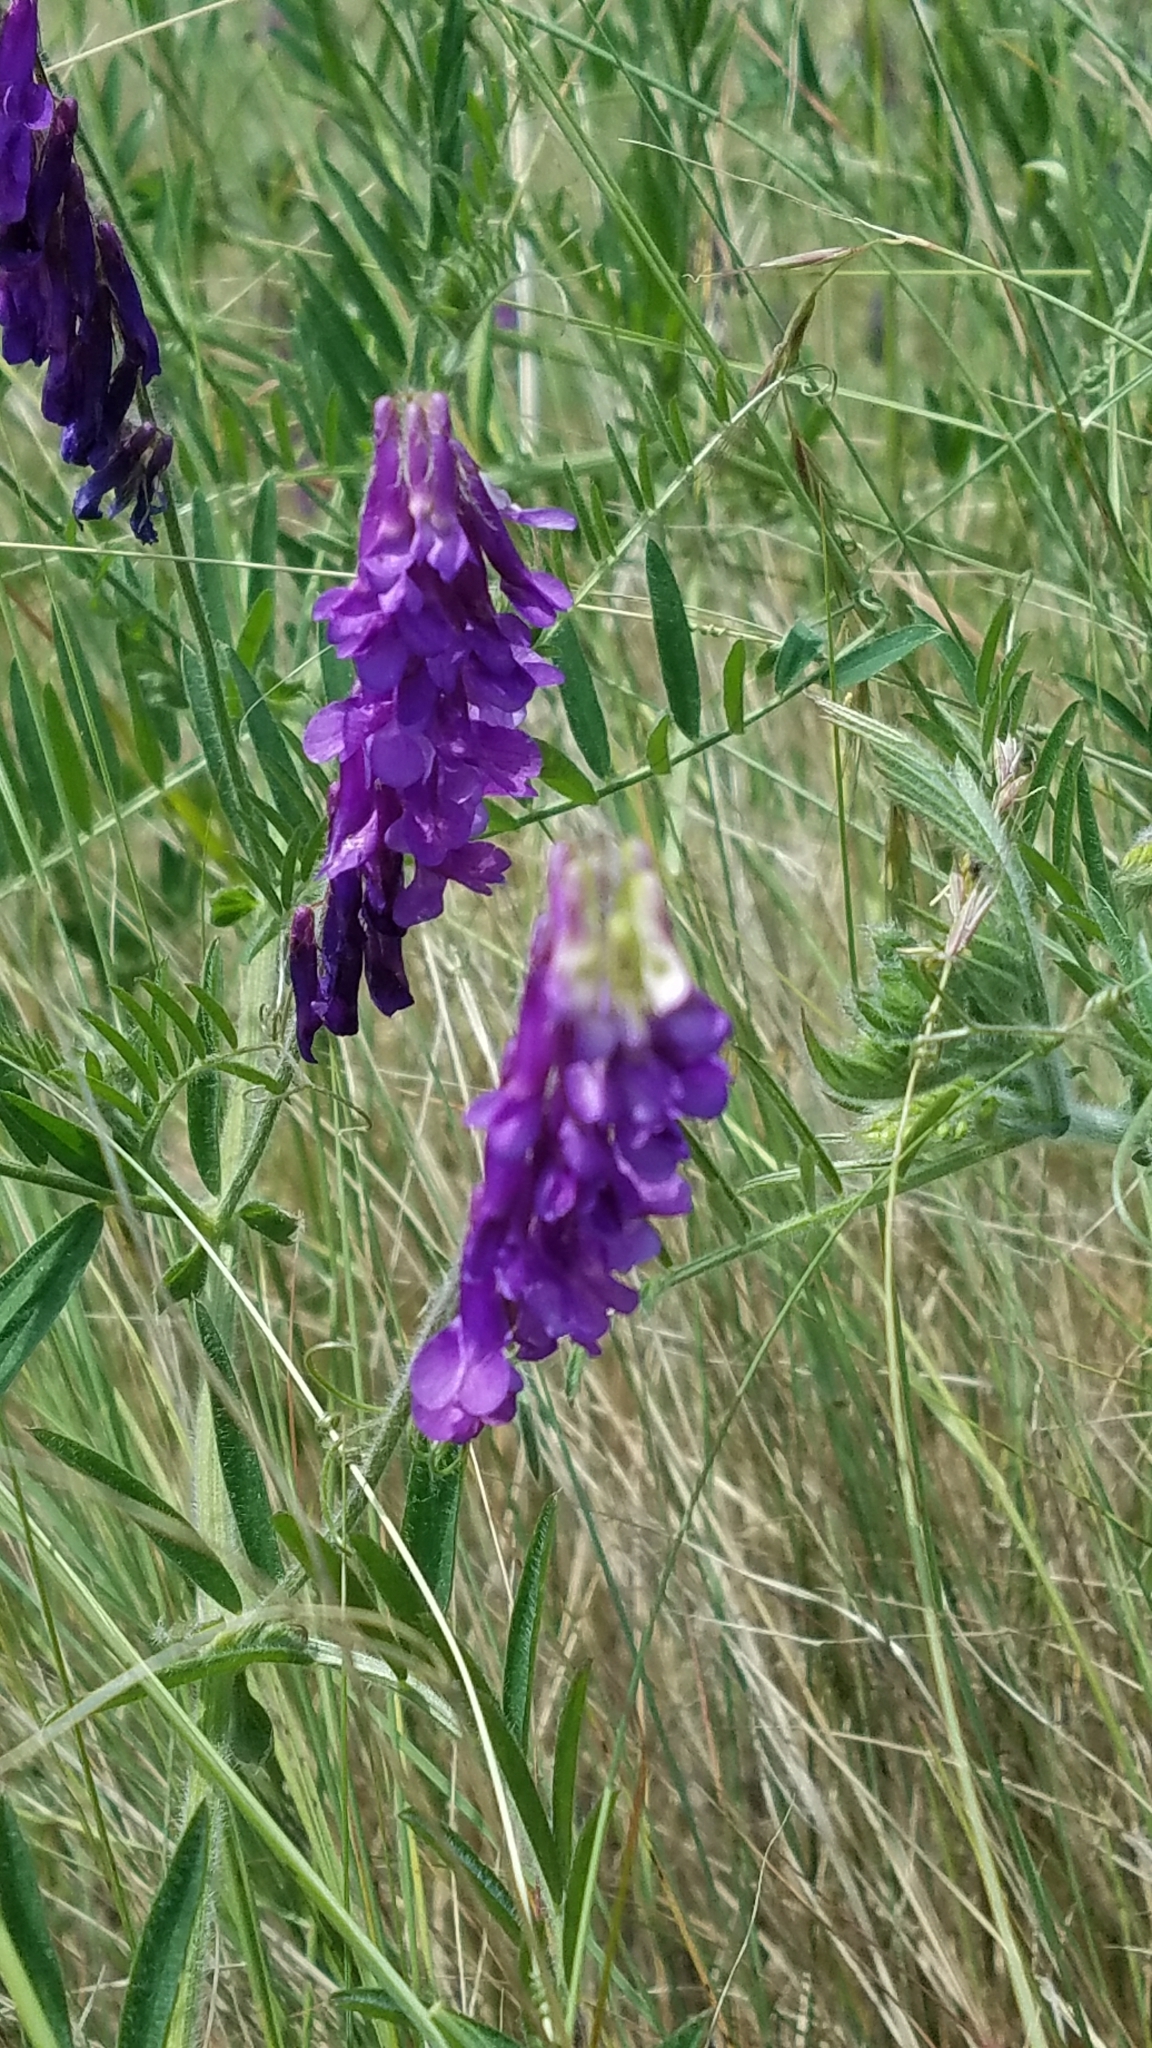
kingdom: Plantae
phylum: Tracheophyta
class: Magnoliopsida
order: Fabales
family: Fabaceae
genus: Vicia
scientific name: Vicia villosa
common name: Fodder vetch
